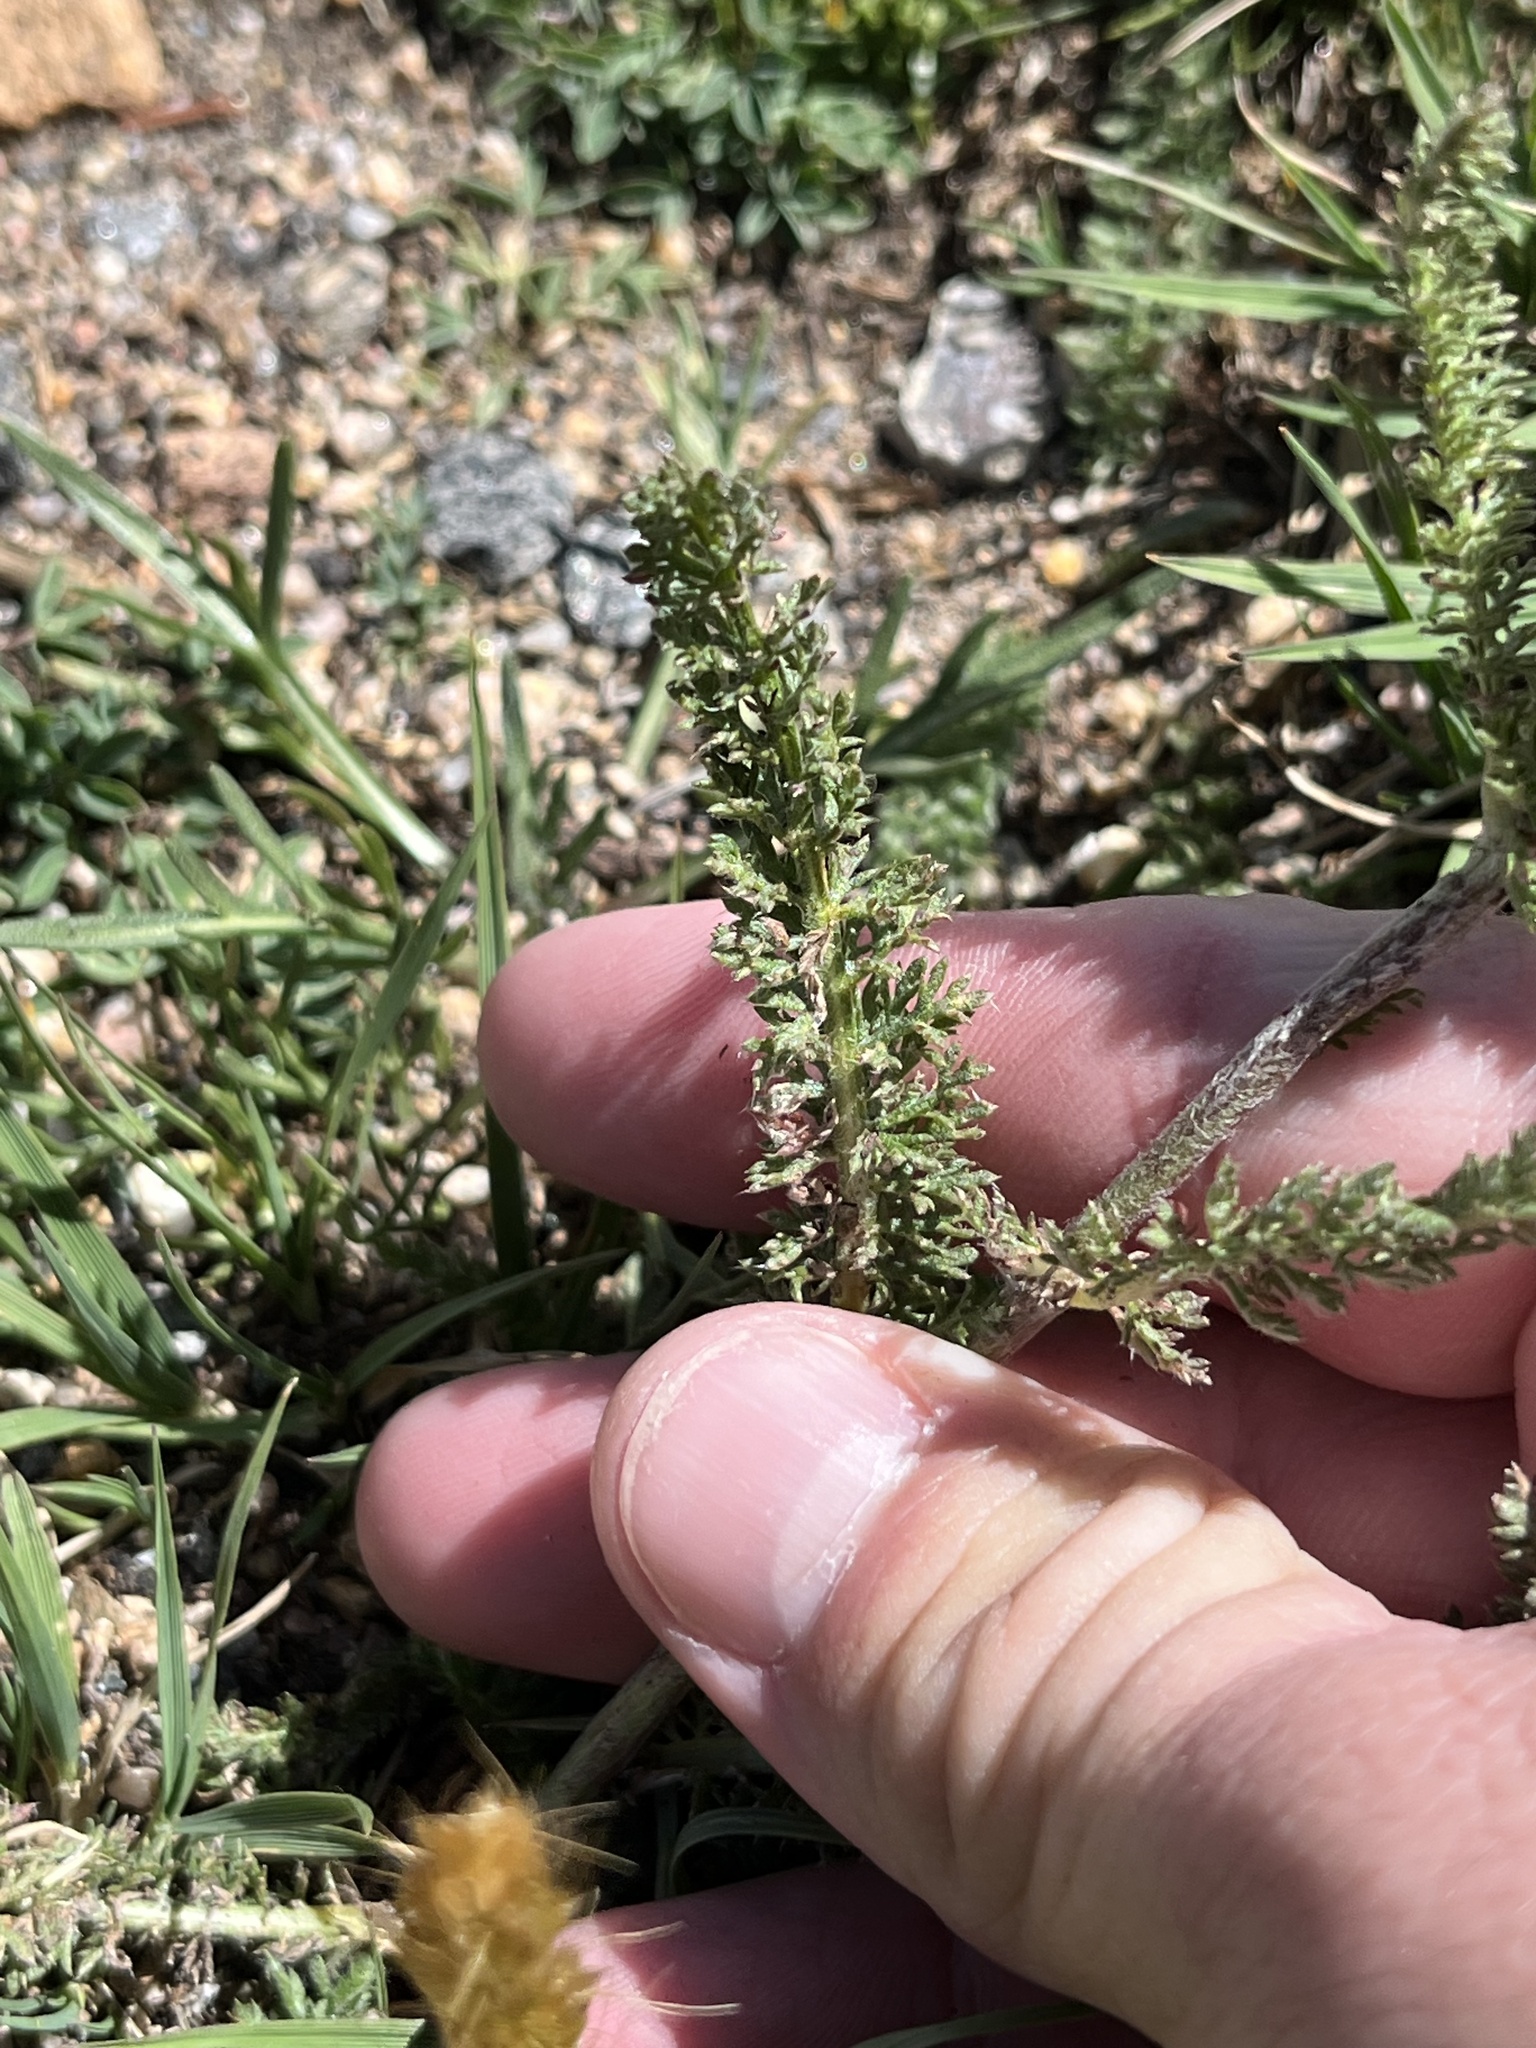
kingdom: Plantae
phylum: Tracheophyta
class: Magnoliopsida
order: Asterales
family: Asteraceae
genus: Achillea
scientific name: Achillea millefolium
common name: Yarrow
